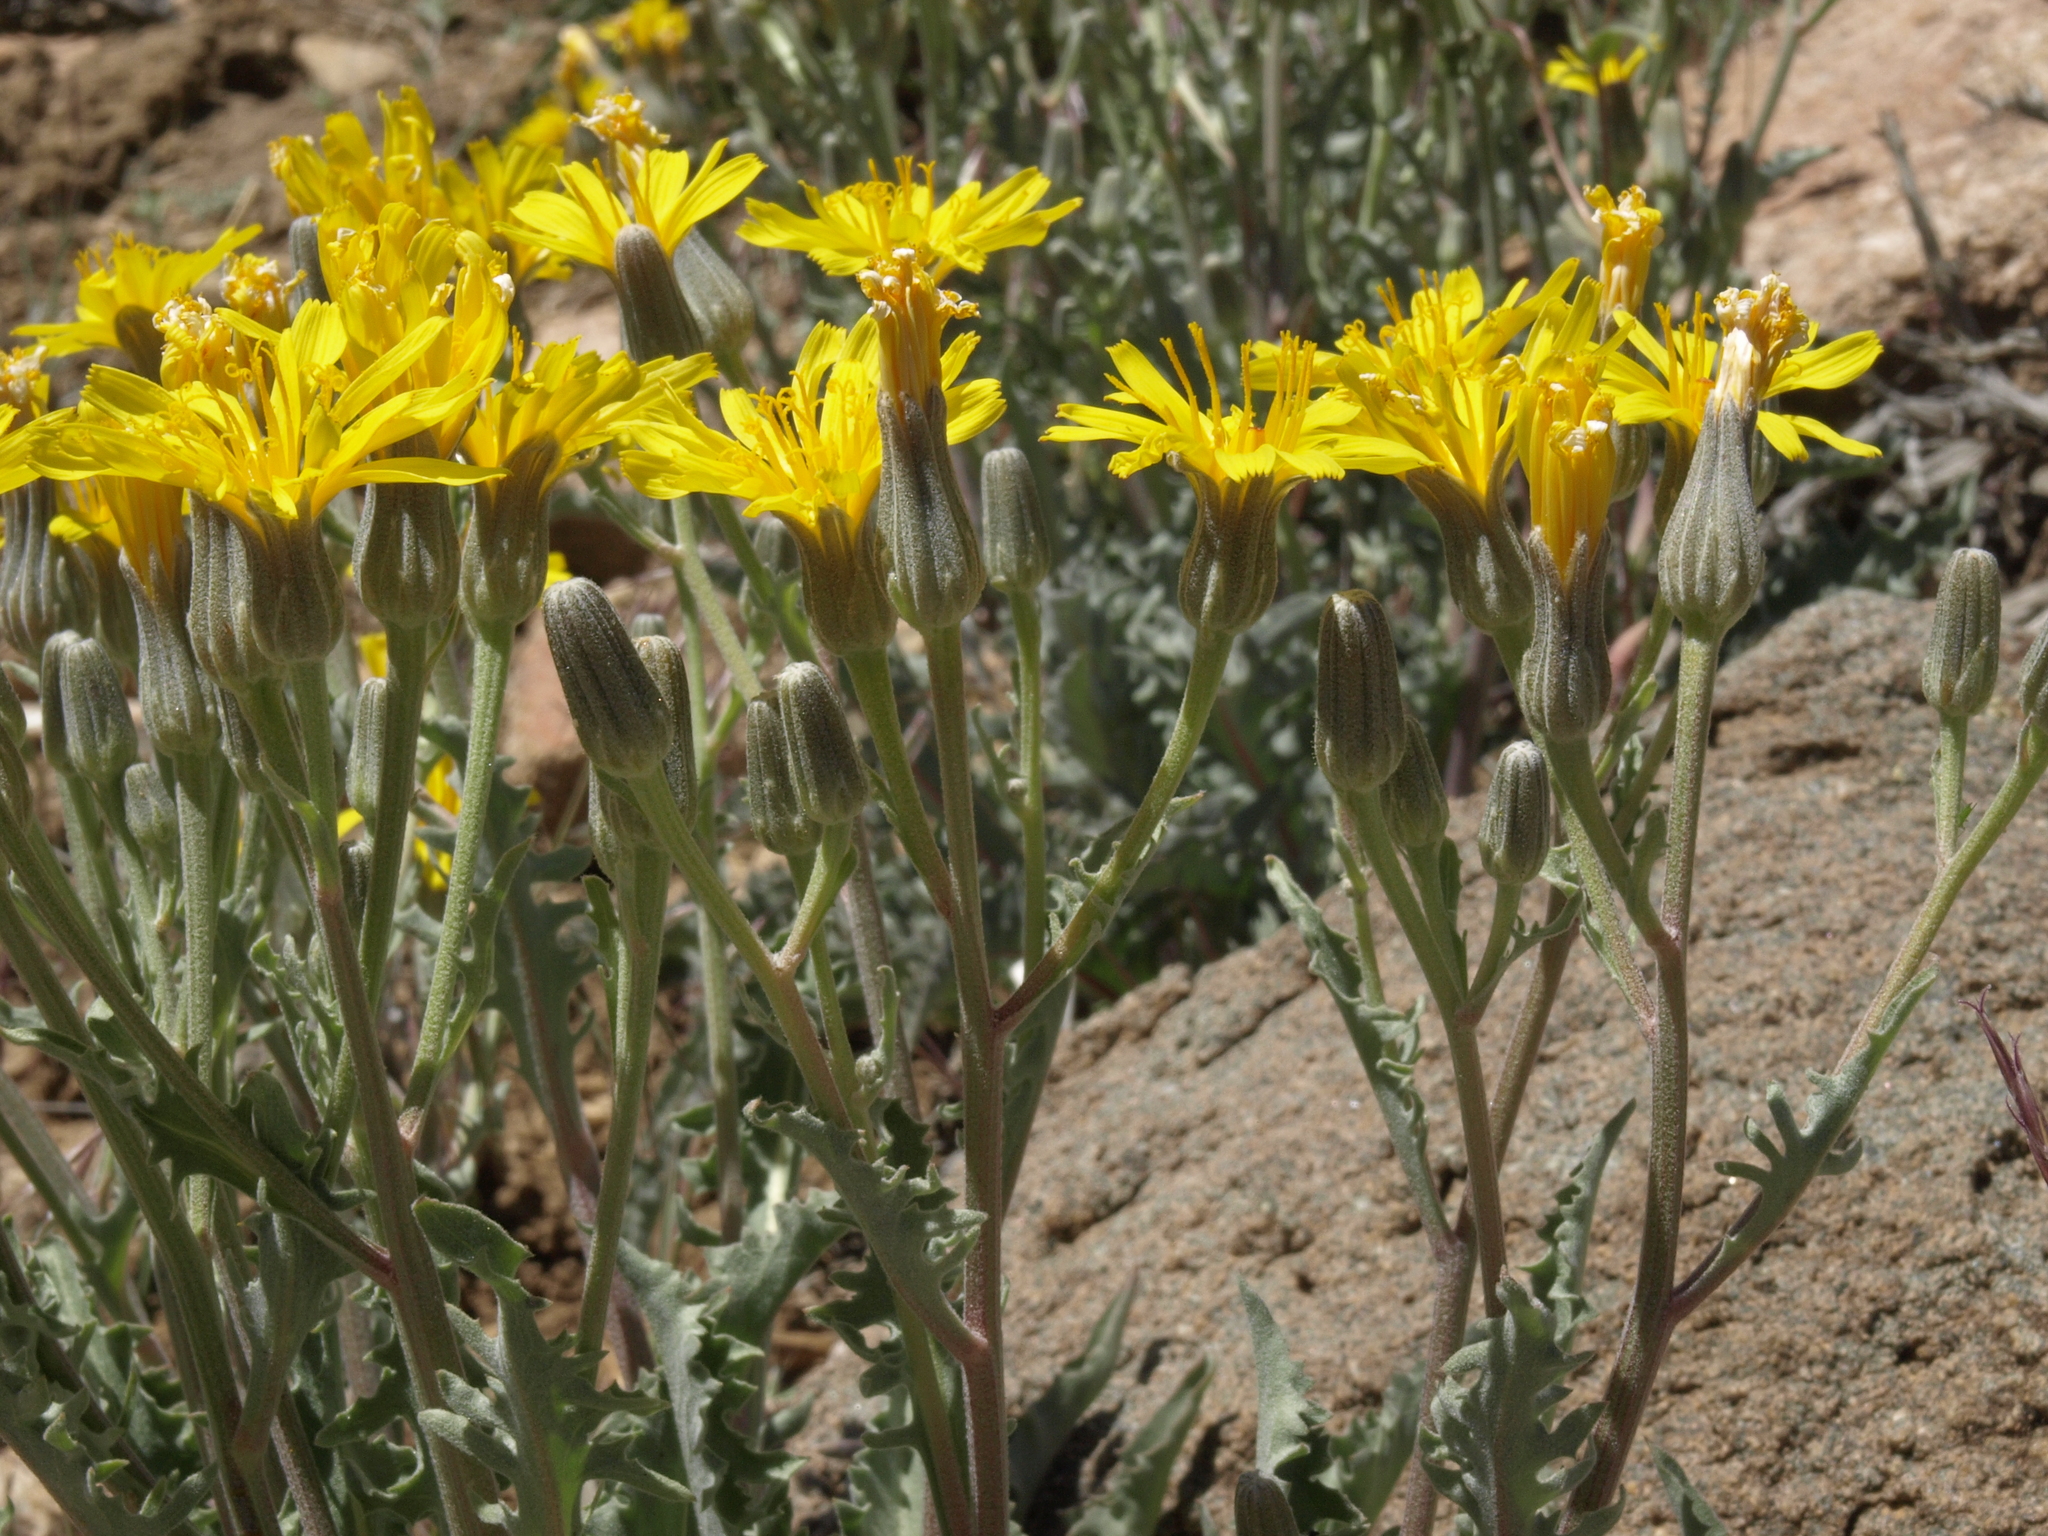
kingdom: Plantae
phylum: Tracheophyta
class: Magnoliopsida
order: Asterales
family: Asteraceae
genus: Crepis
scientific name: Crepis occidentalis
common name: Gray hawk's-beard
